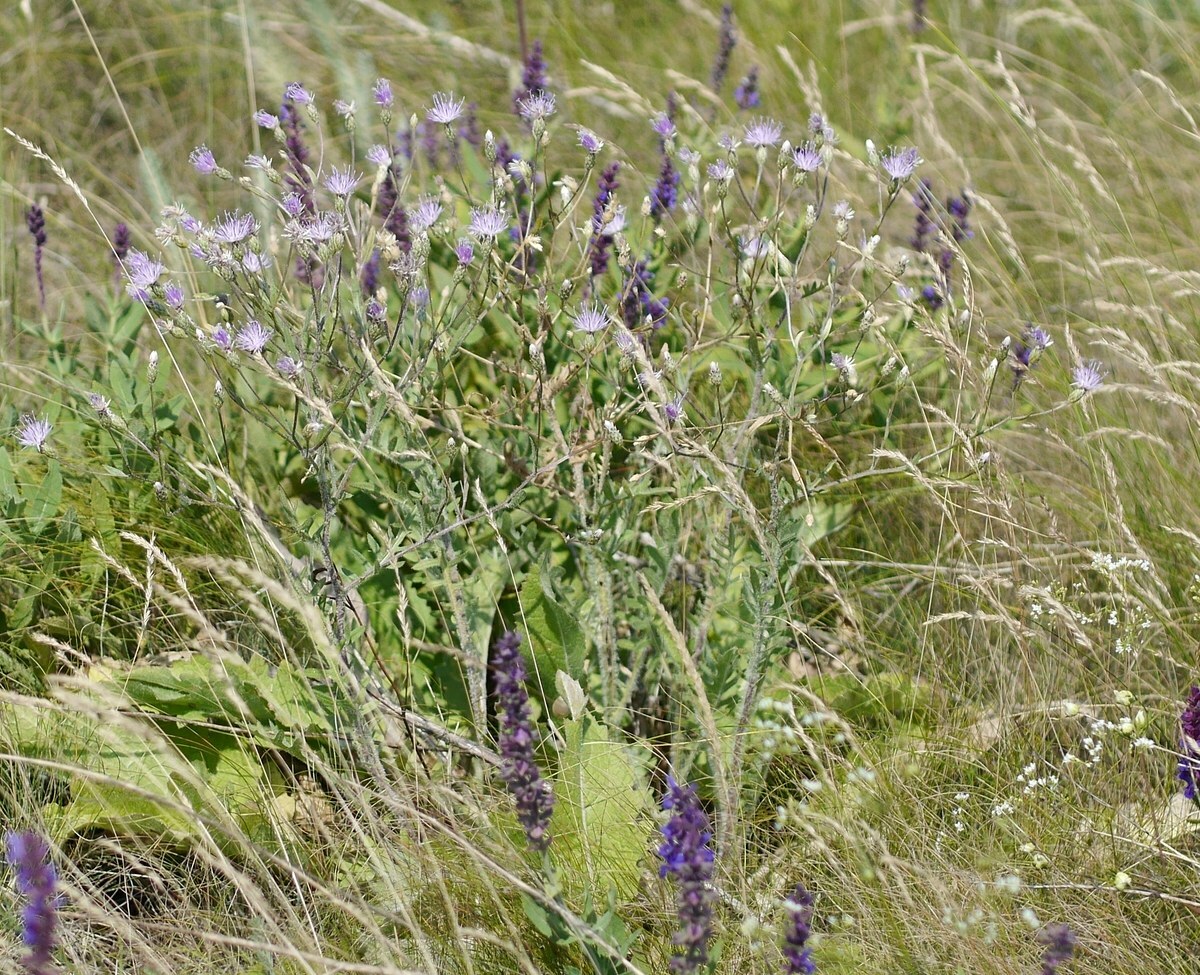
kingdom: Plantae
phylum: Tracheophyta
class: Magnoliopsida
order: Asterales
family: Asteraceae
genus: Klasea
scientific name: Klasea erucifolia
